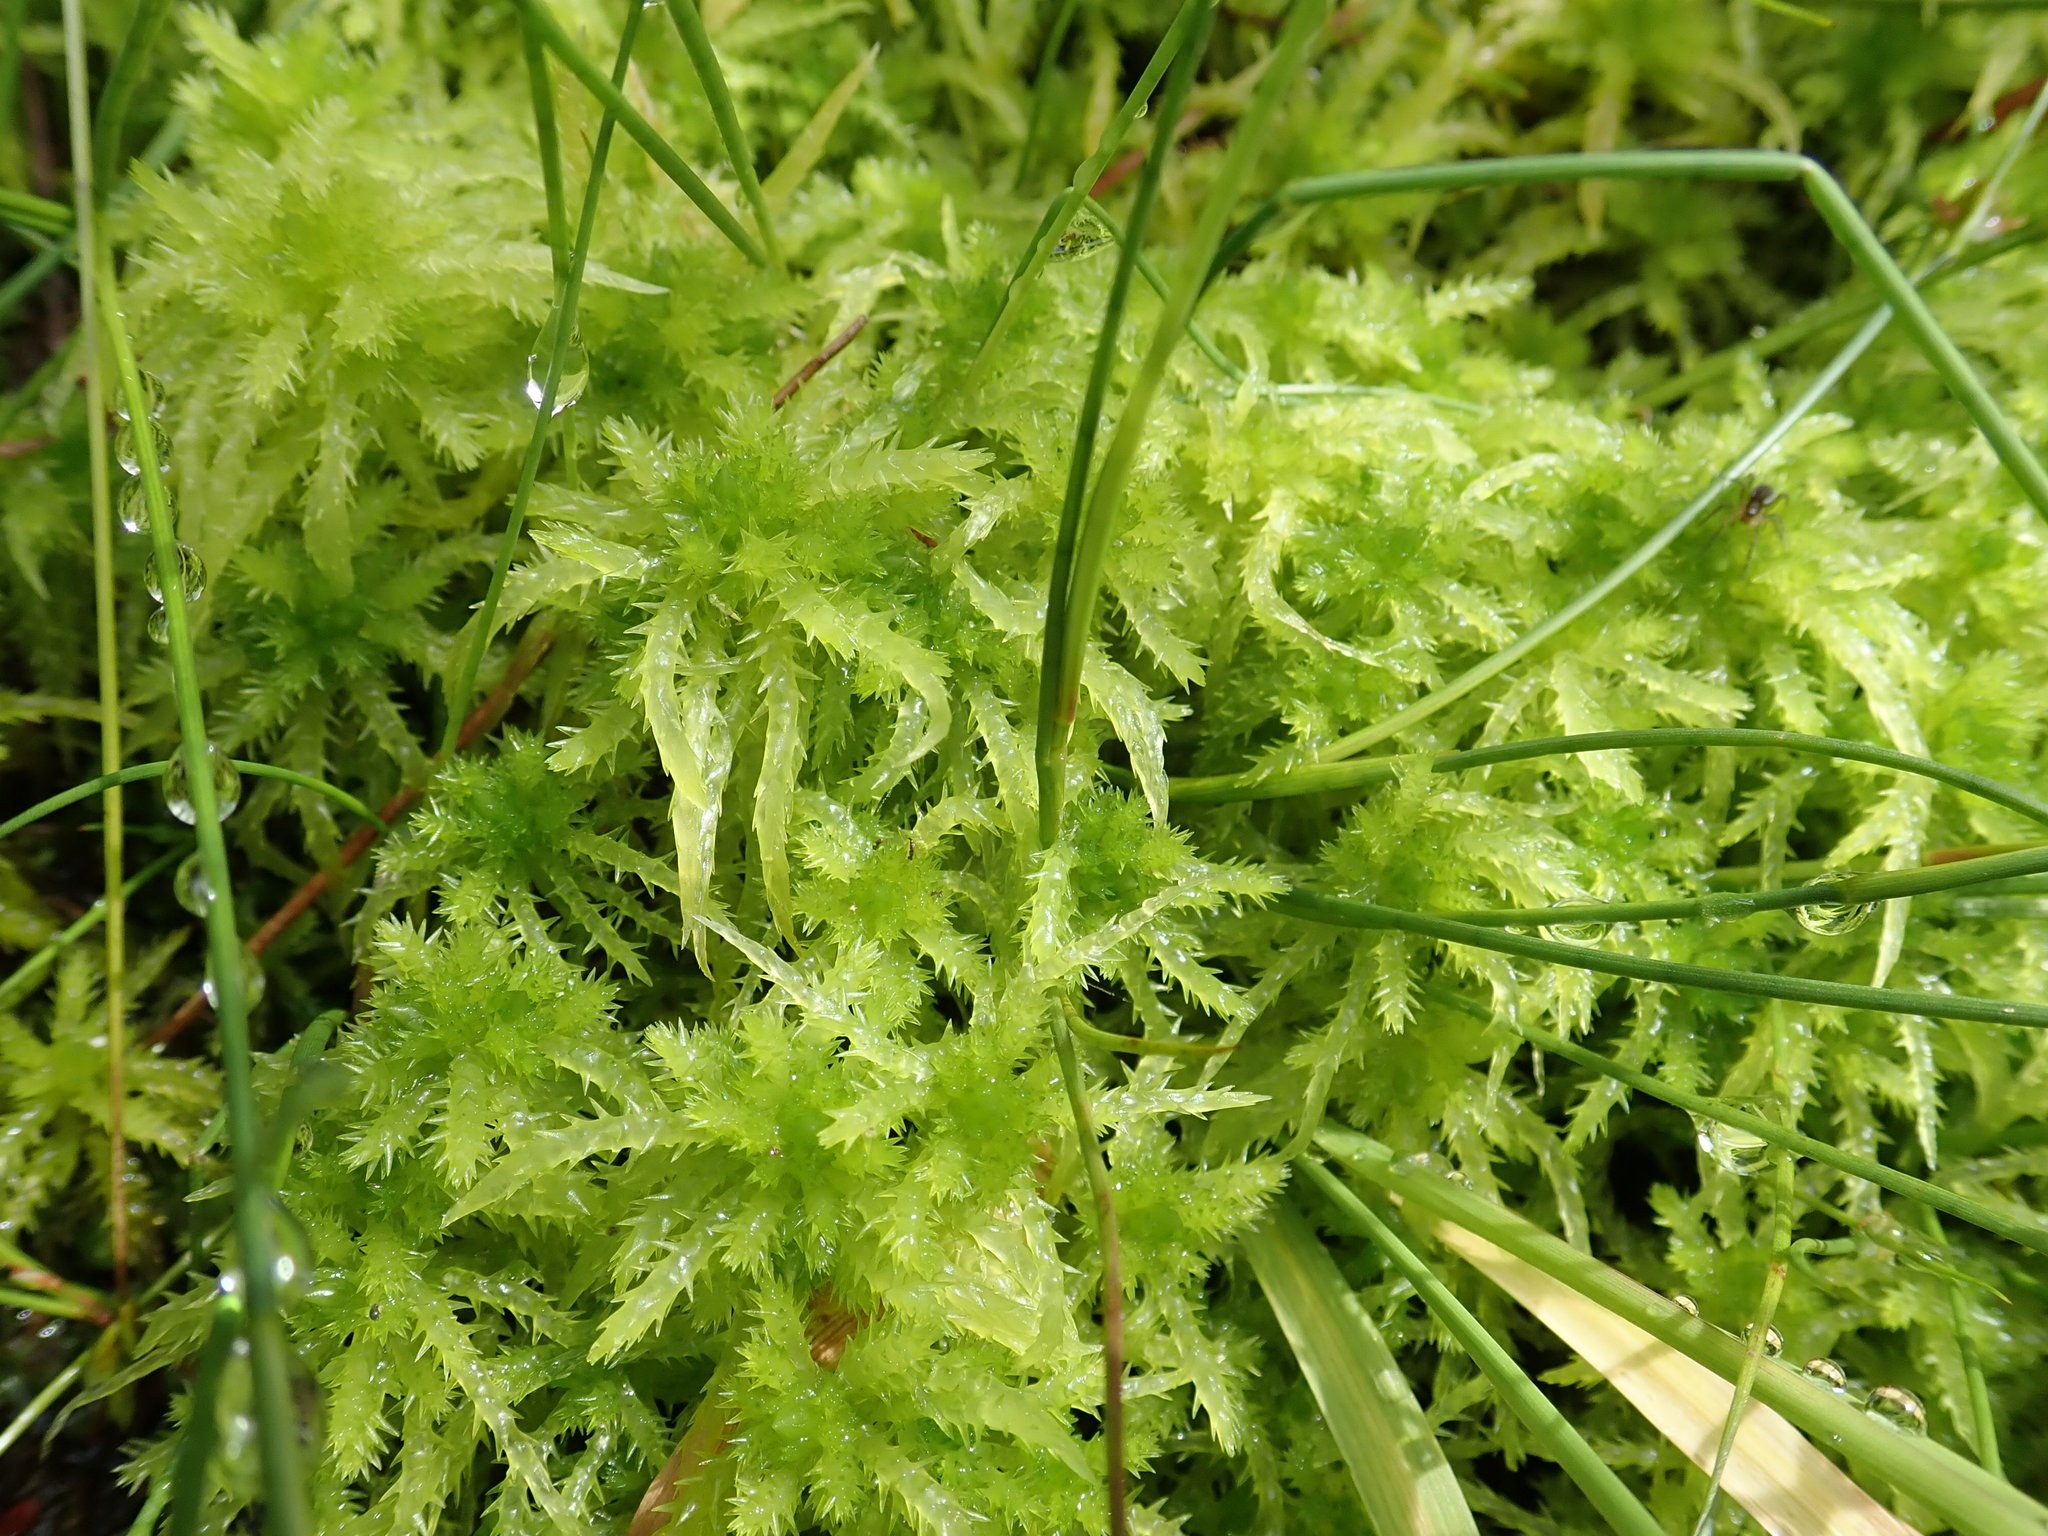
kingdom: Plantae
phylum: Bryophyta
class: Sphagnopsida
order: Sphagnales
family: Sphagnaceae
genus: Sphagnum
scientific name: Sphagnum squarrosum
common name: Shaggy peat moss
